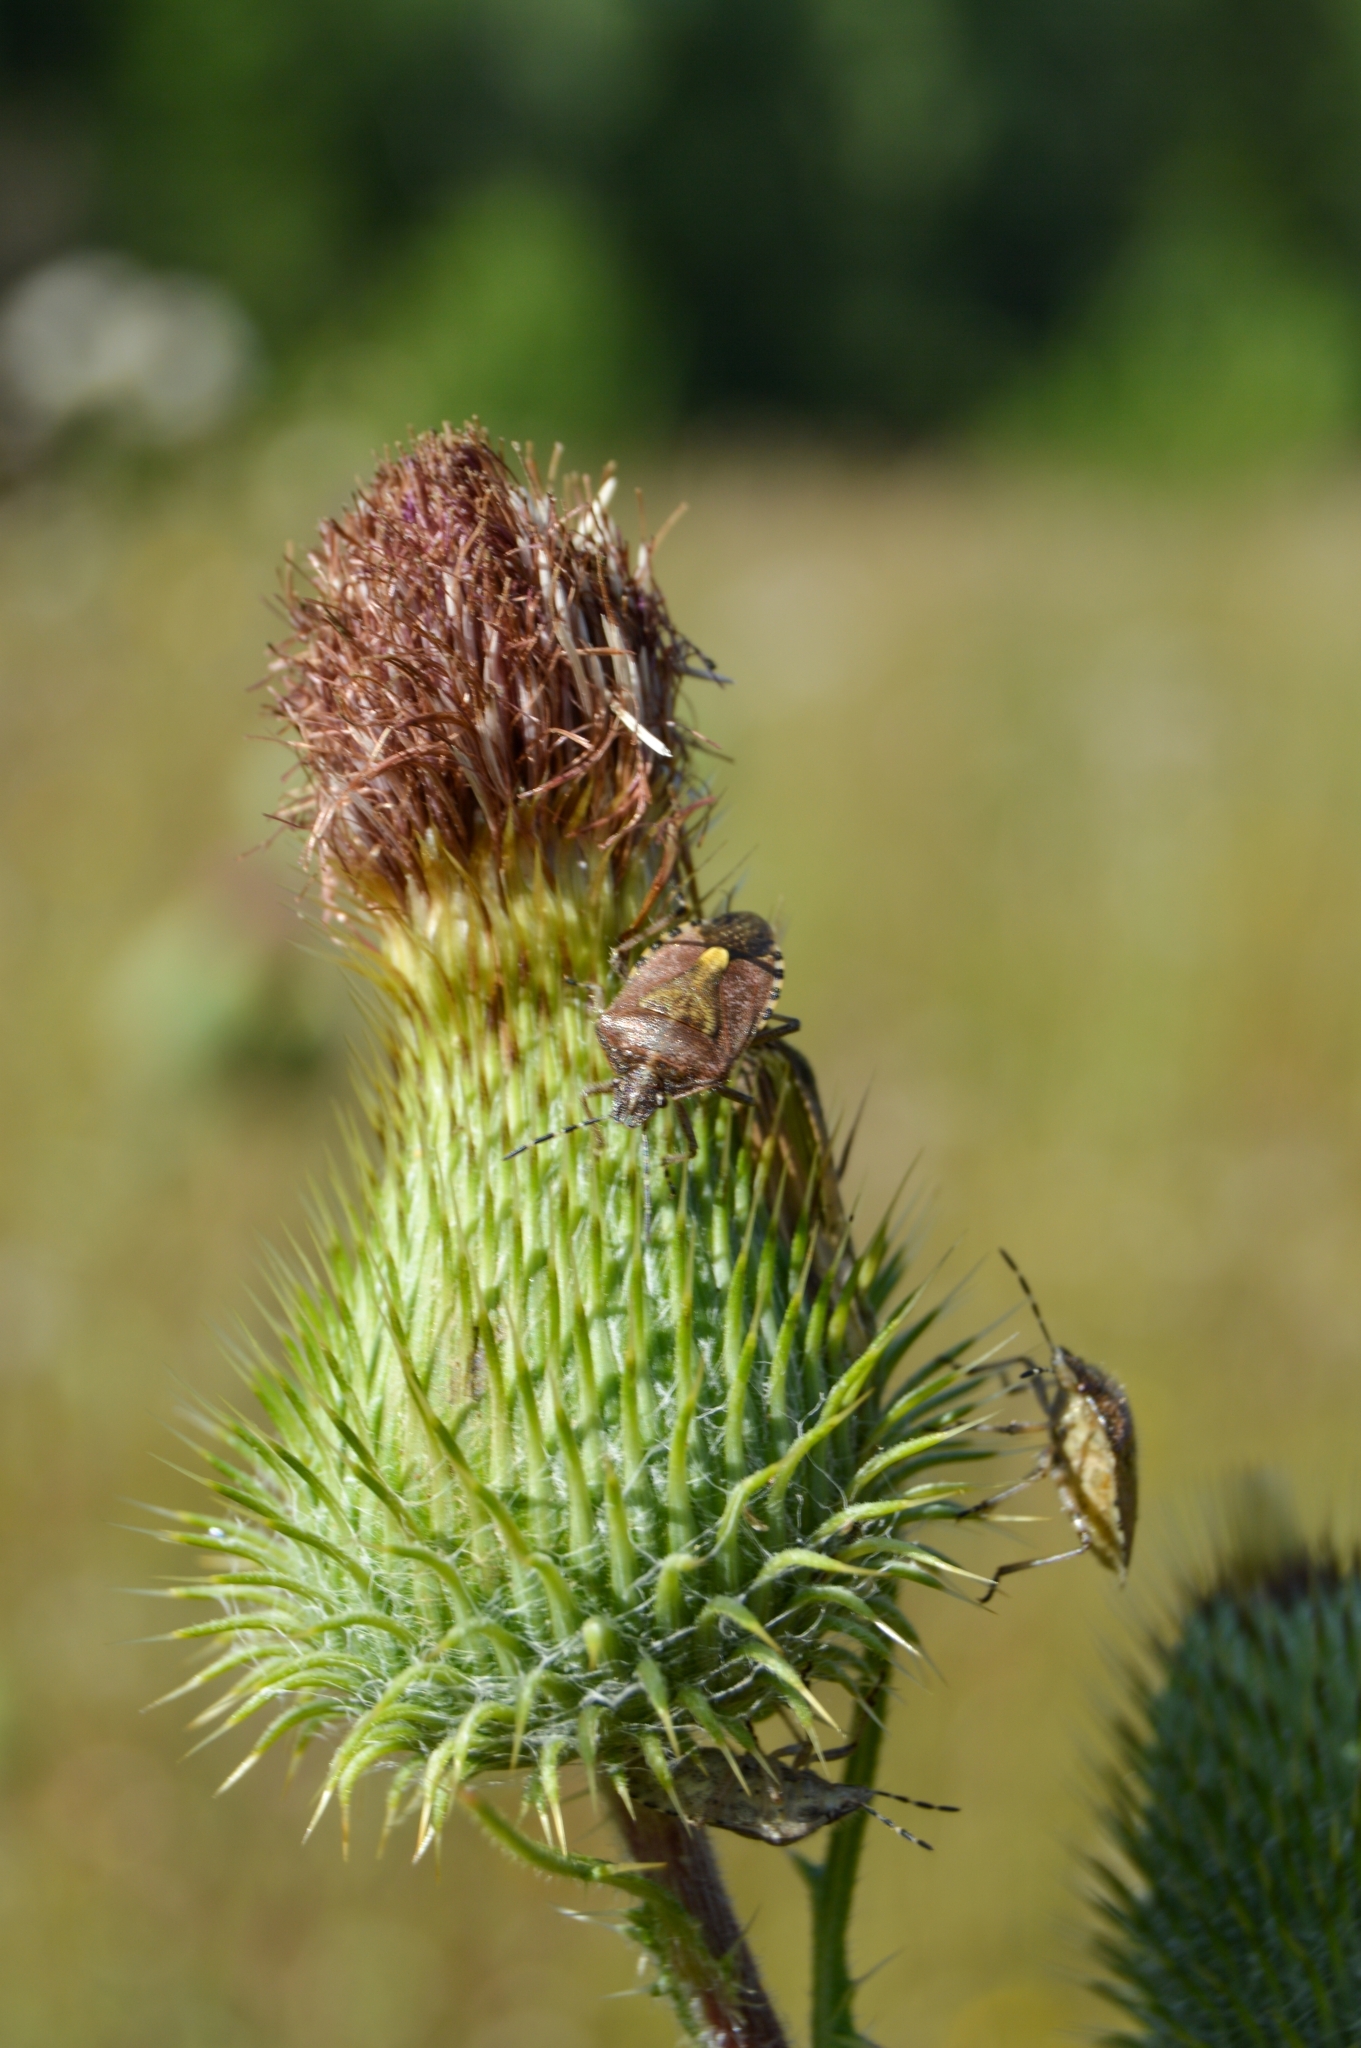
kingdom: Animalia
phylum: Arthropoda
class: Insecta
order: Hemiptera
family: Pentatomidae
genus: Dolycoris
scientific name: Dolycoris baccarum
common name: Sloe bug
